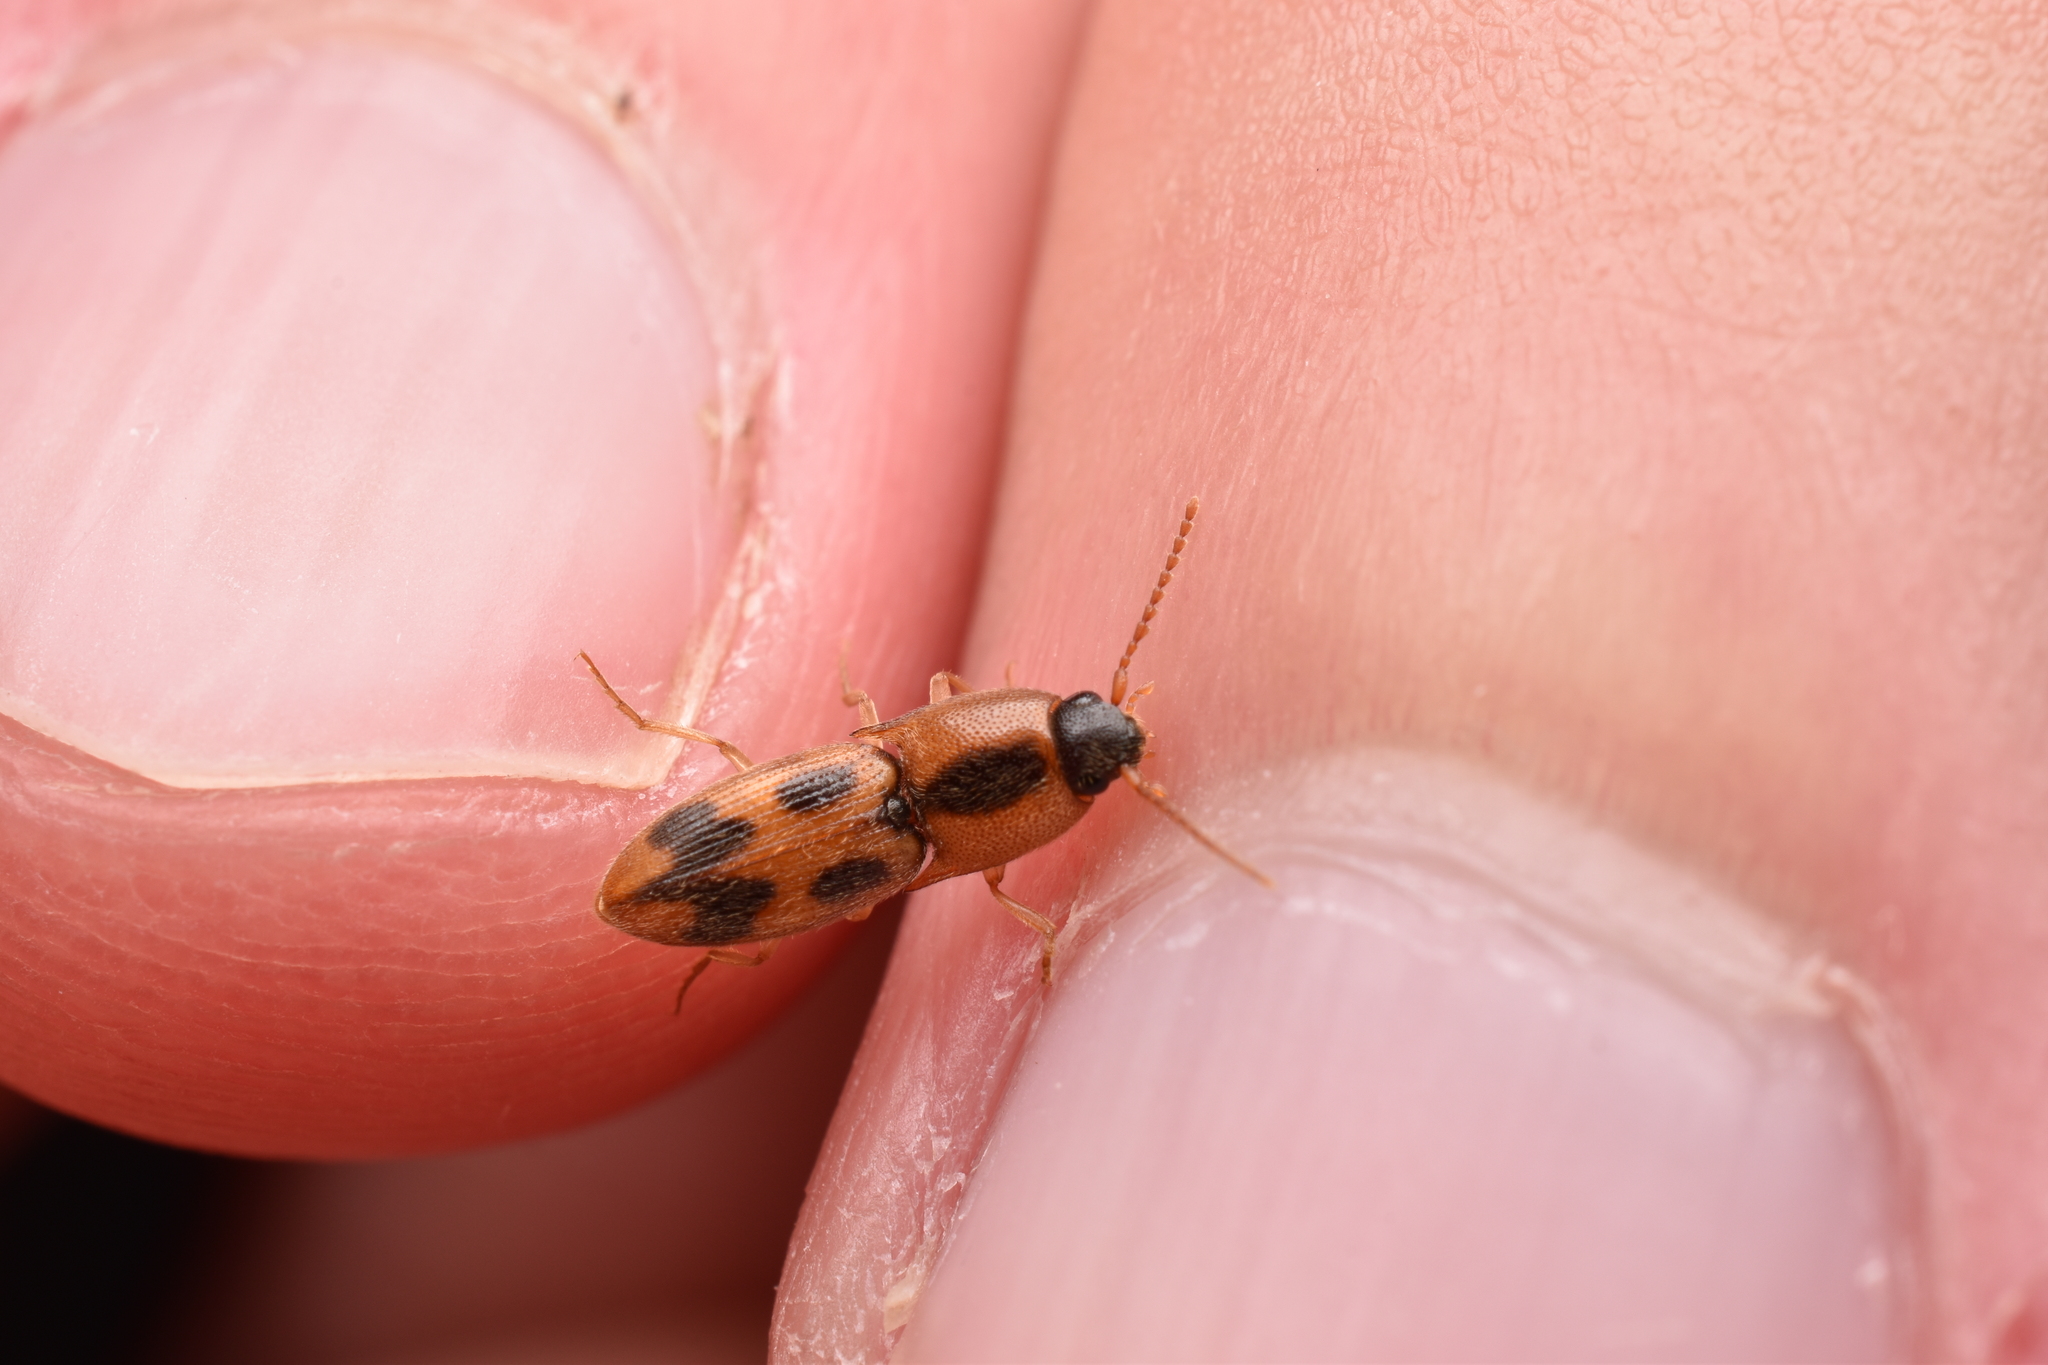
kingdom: Animalia
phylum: Arthropoda
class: Insecta
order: Coleoptera
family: Elateridae
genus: Aeolus
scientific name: Aeolus mellillus
